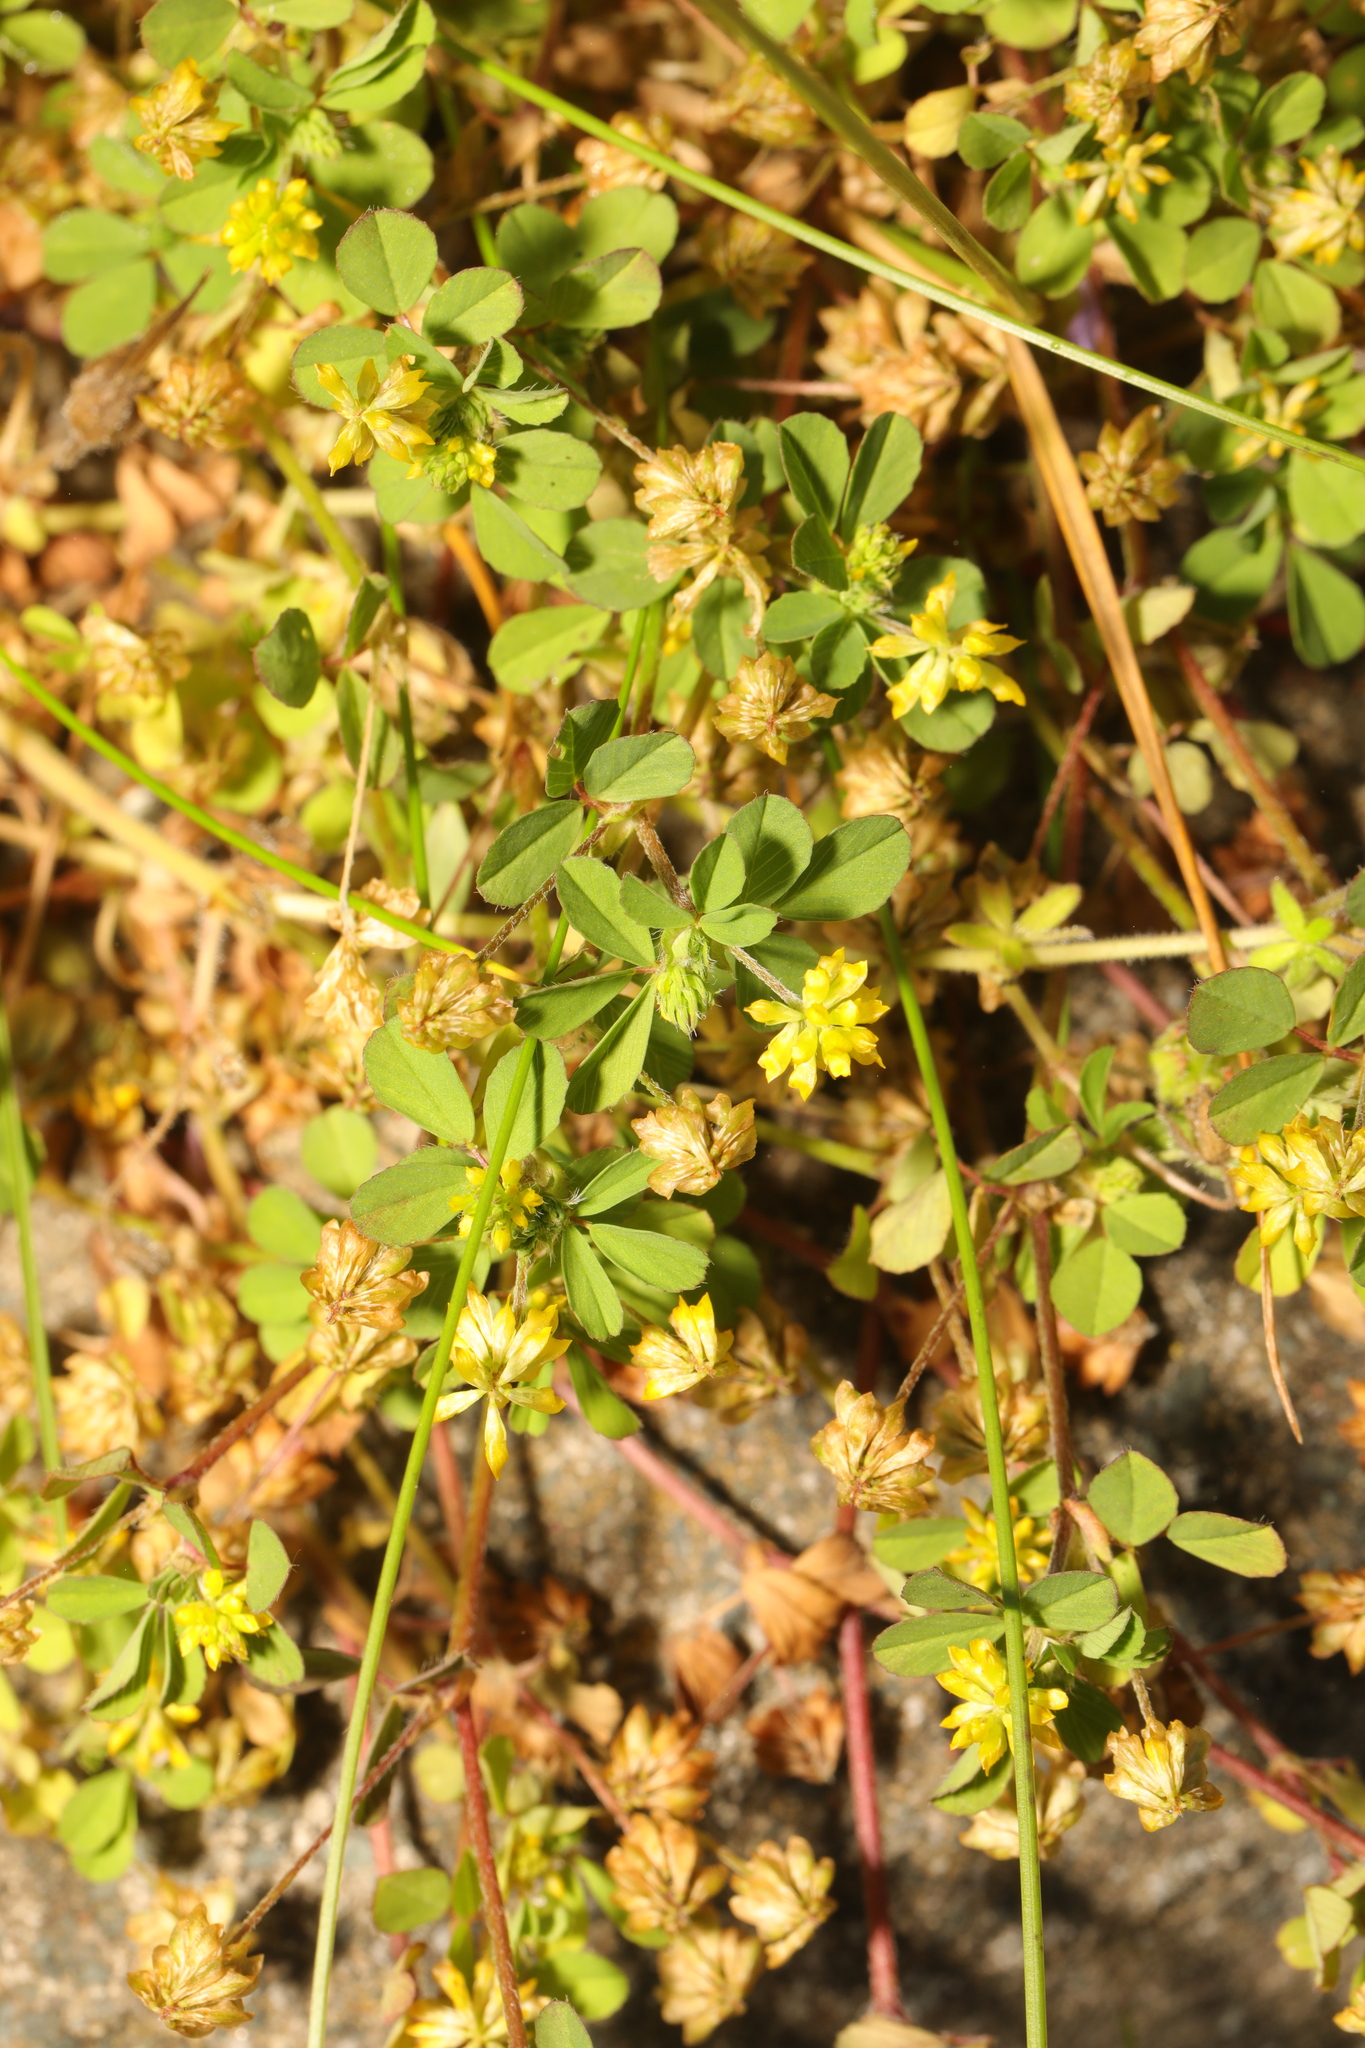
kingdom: Plantae
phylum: Tracheophyta
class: Magnoliopsida
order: Fabales
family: Fabaceae
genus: Trifolium
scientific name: Trifolium dubium
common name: Suckling clover
